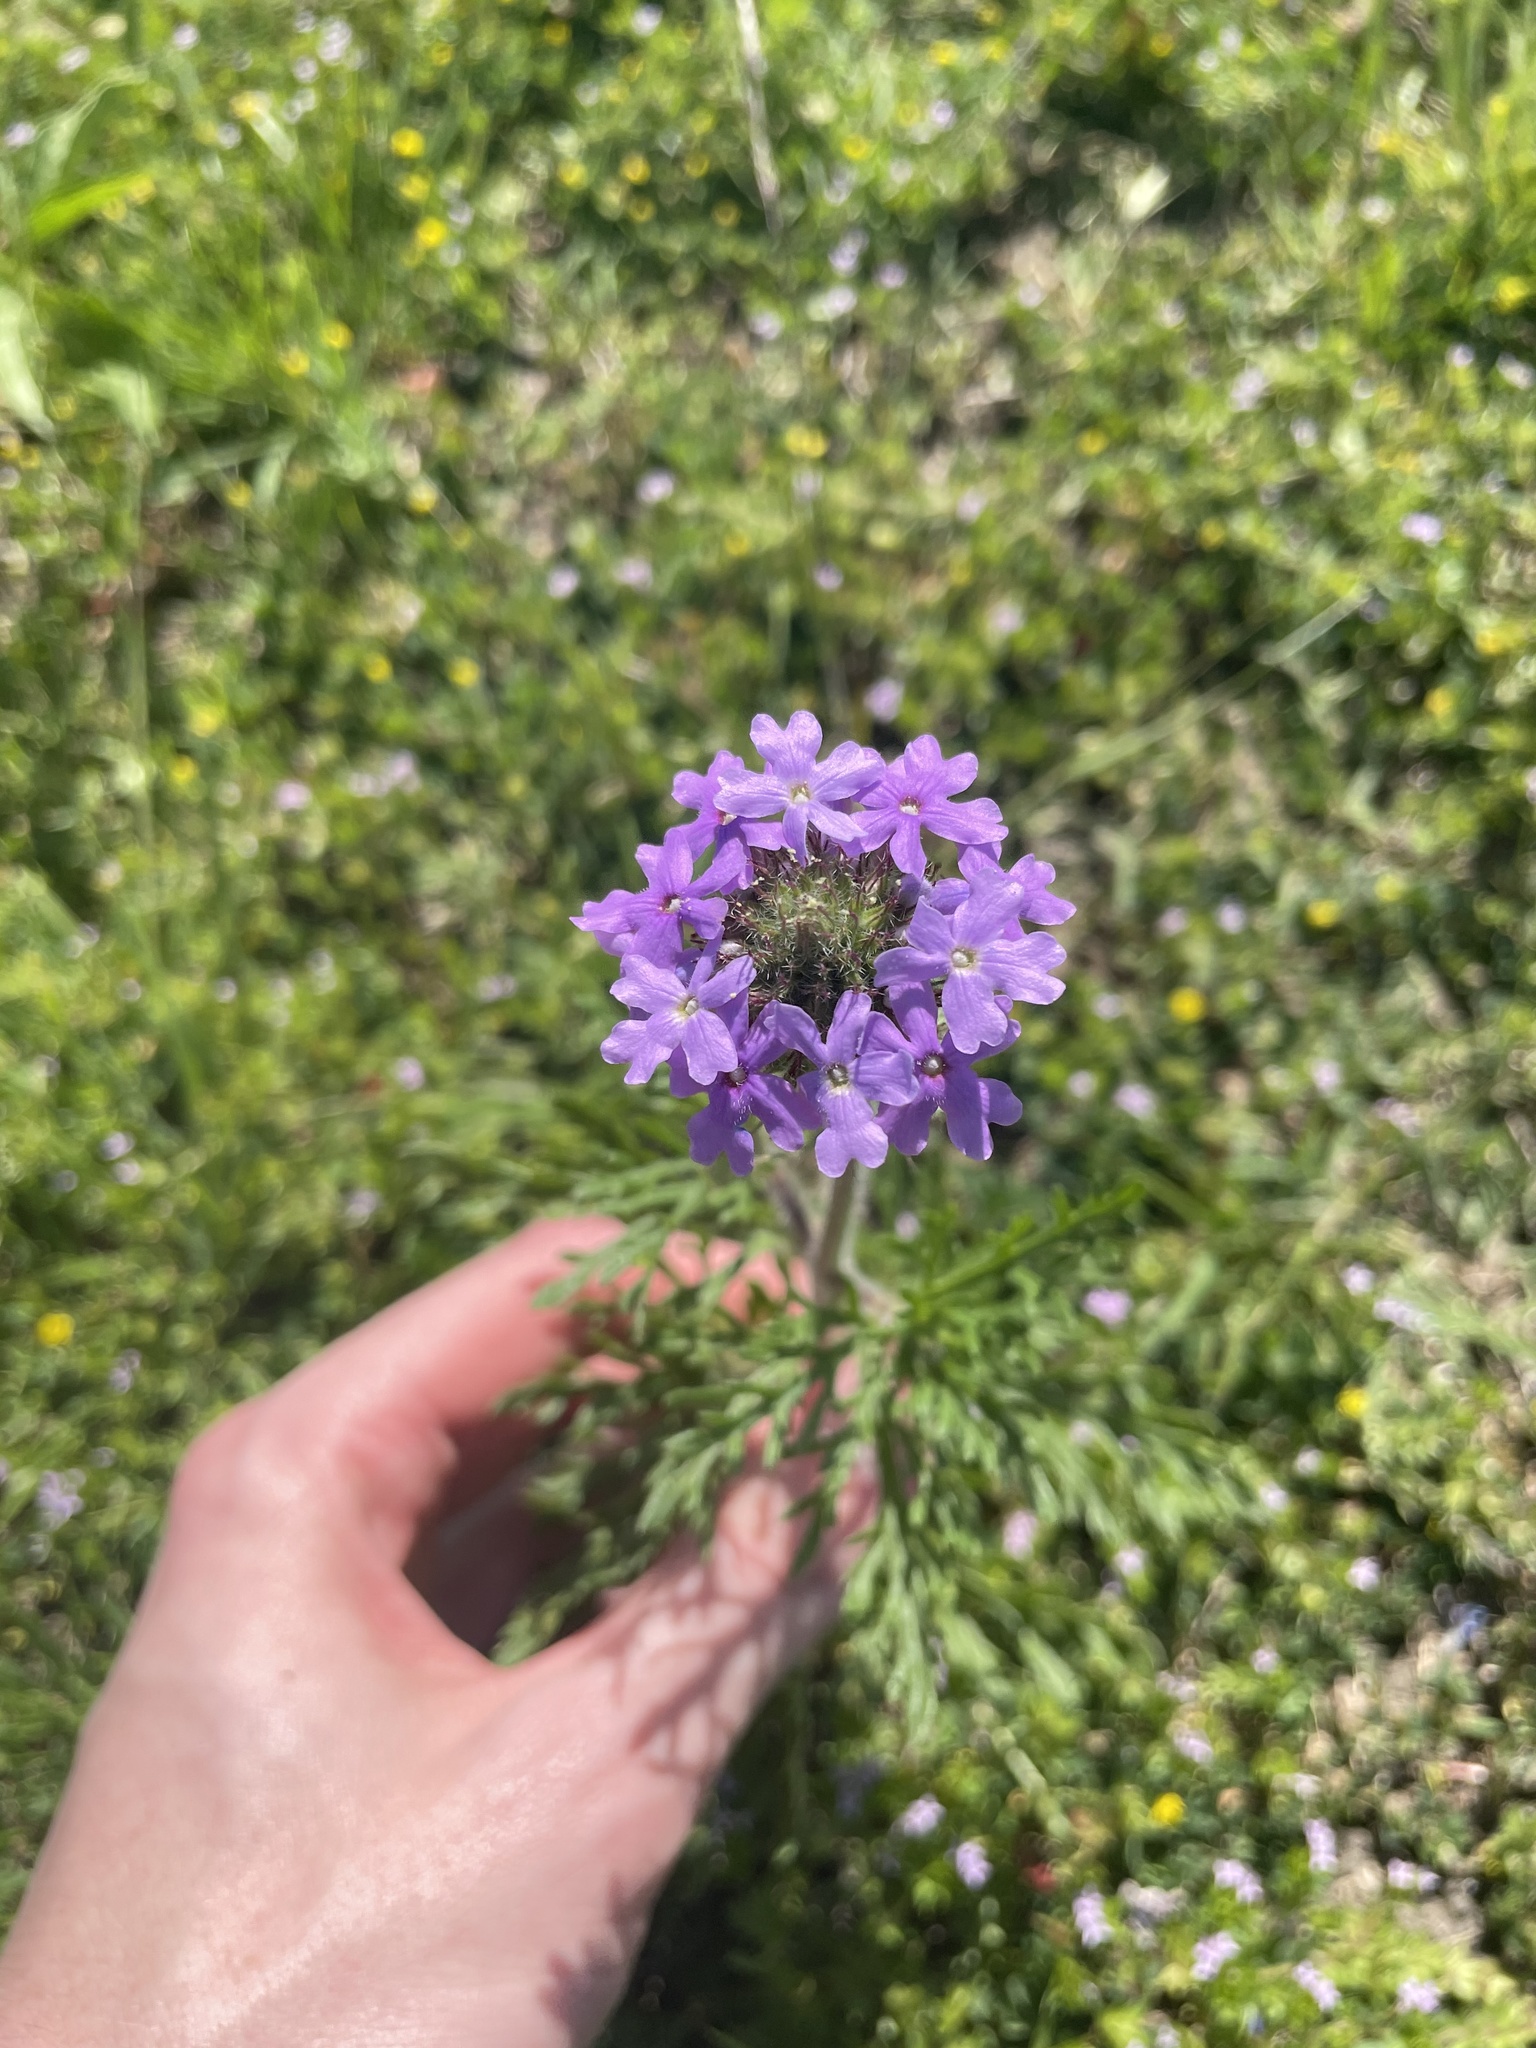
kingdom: Plantae
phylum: Tracheophyta
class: Magnoliopsida
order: Lamiales
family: Verbenaceae
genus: Verbena
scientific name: Verbena bipinnatifida
